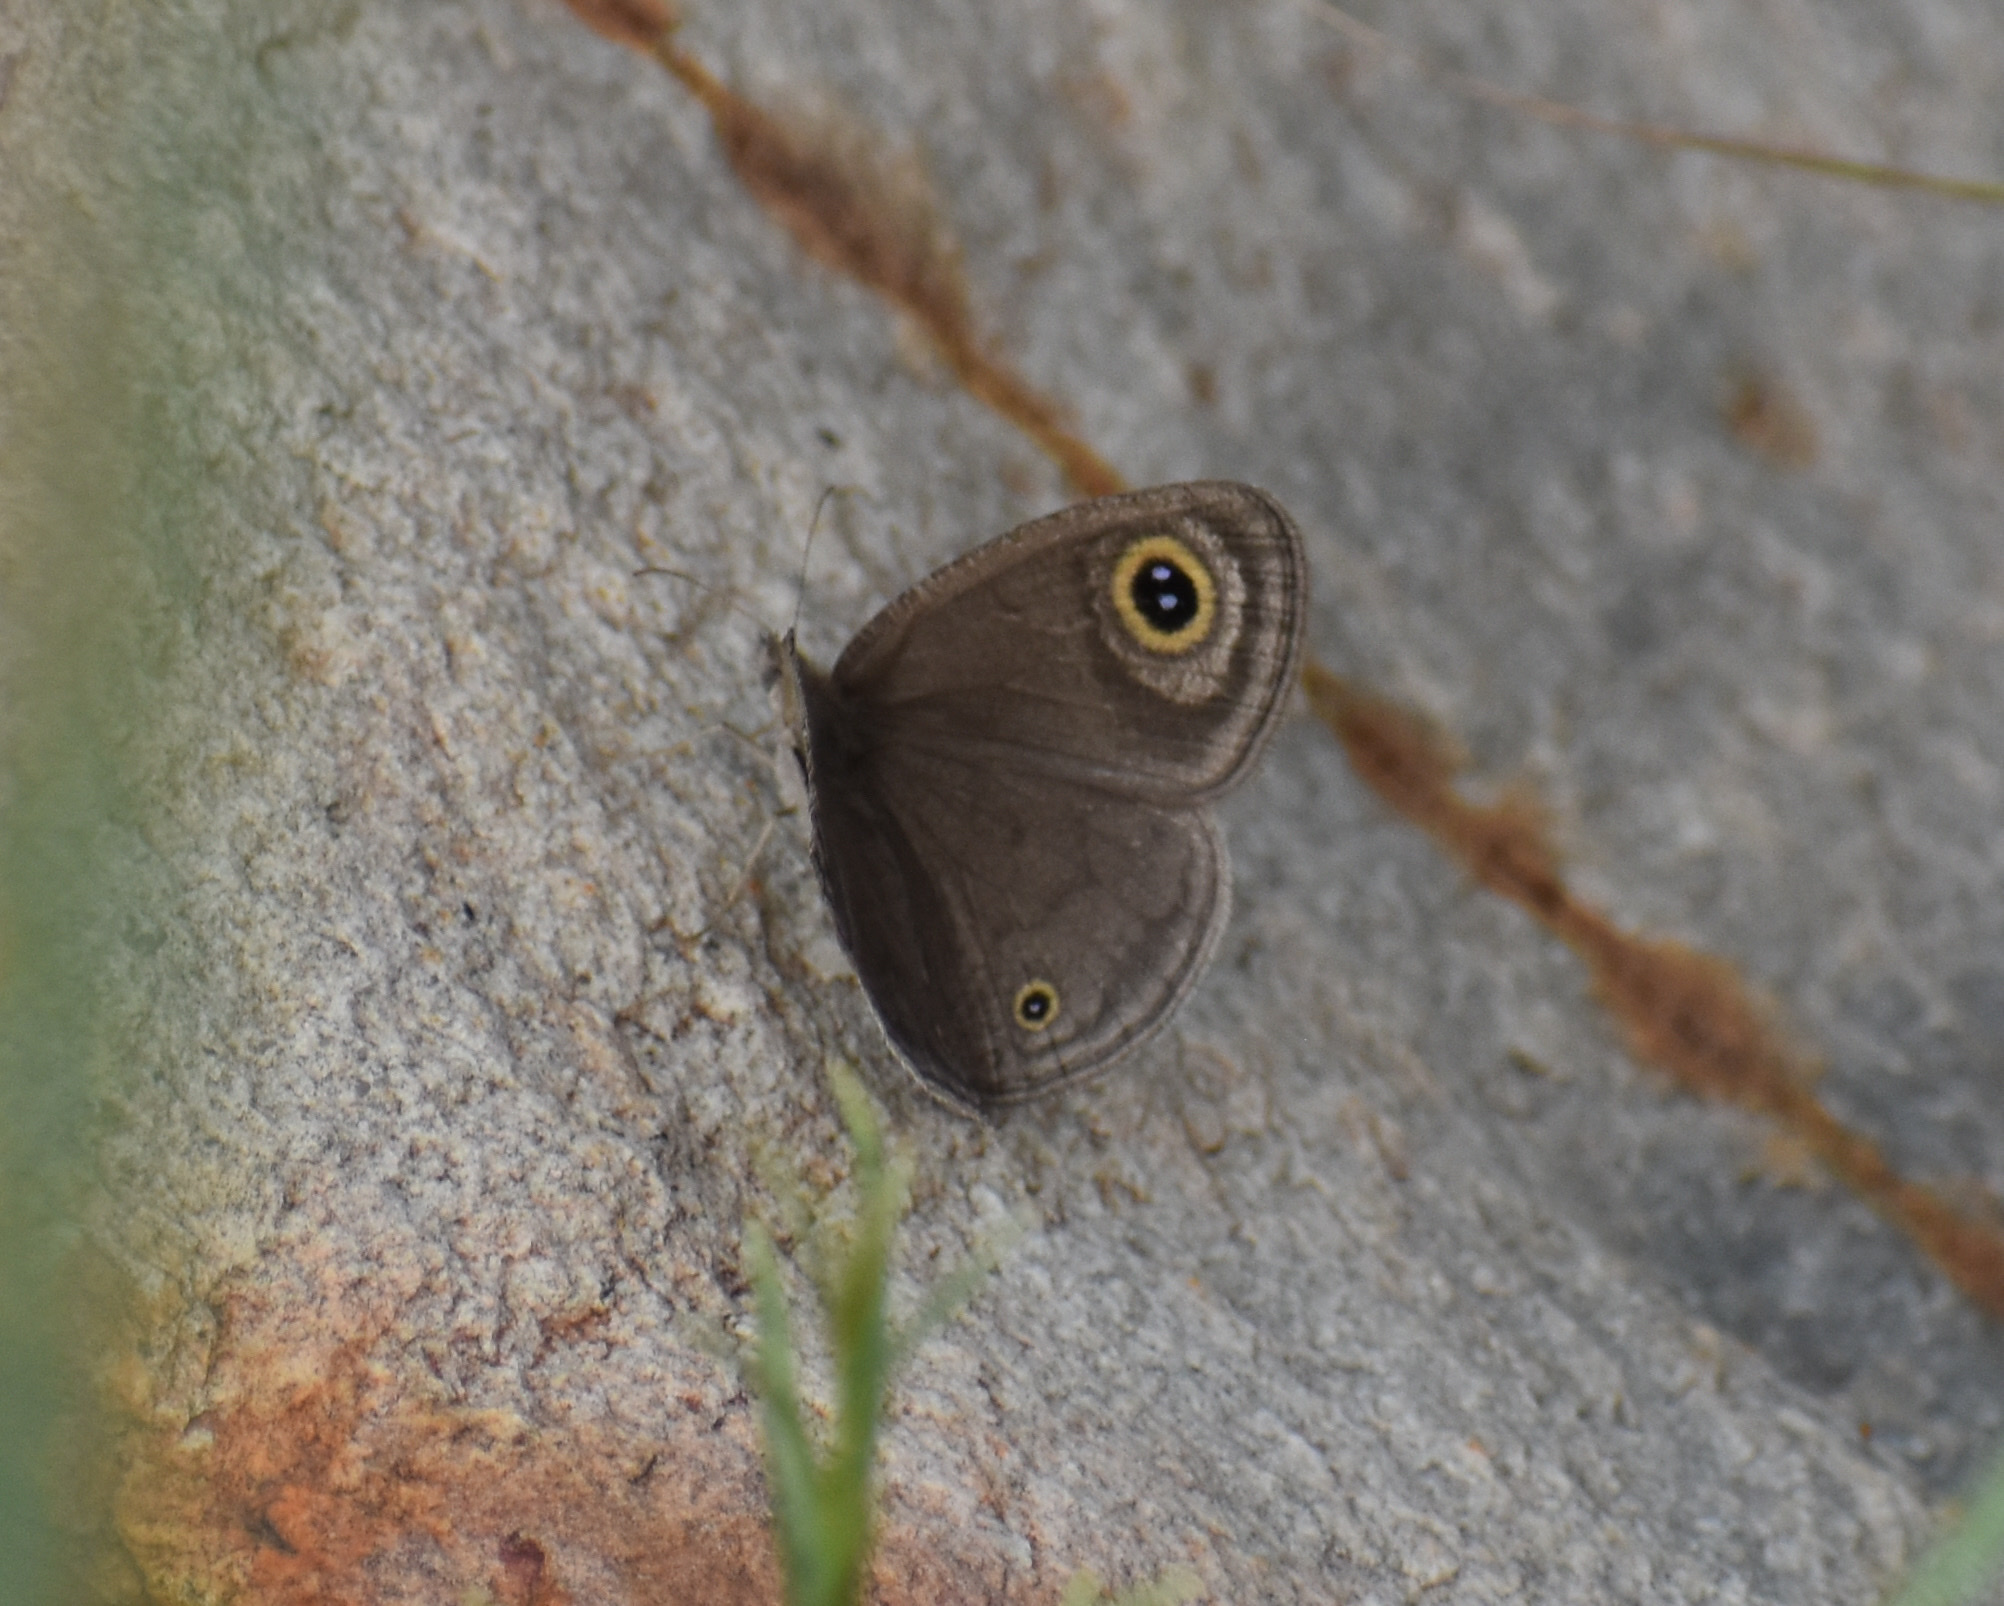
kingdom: Animalia
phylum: Arthropoda
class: Insecta
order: Lepidoptera
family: Nymphalidae
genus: Ypthima
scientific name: Ypthima asterope
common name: African ringlet
